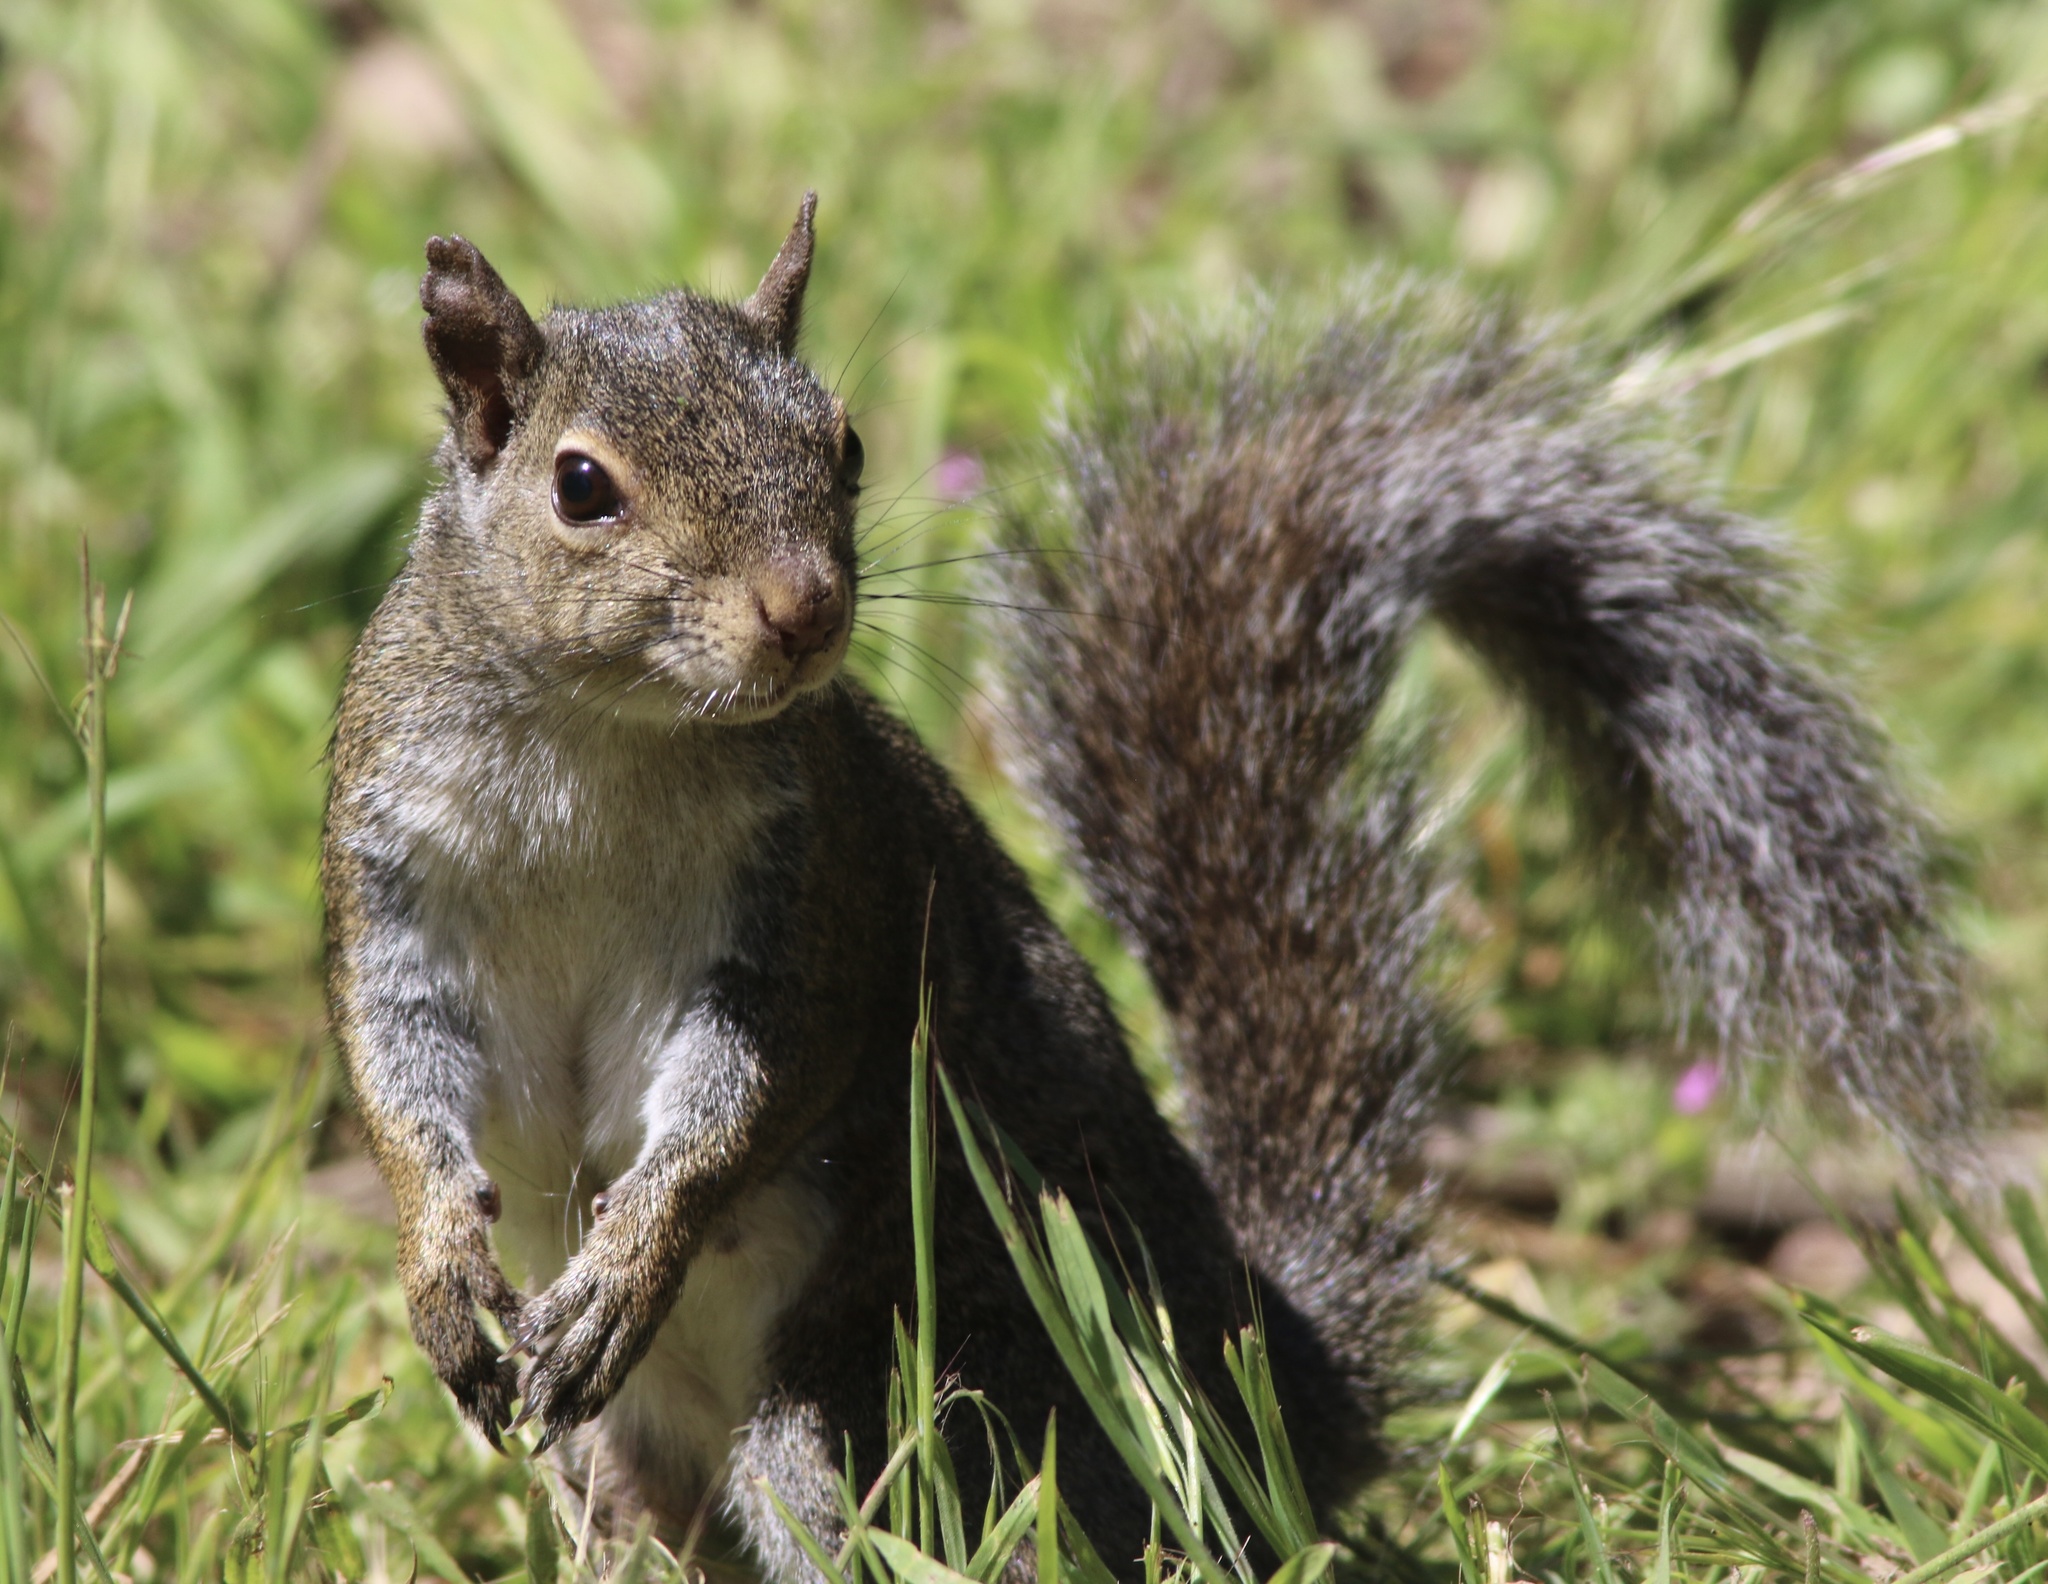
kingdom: Animalia
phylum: Chordata
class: Mammalia
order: Rodentia
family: Sciuridae
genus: Sciurus
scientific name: Sciurus carolinensis
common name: Eastern gray squirrel
